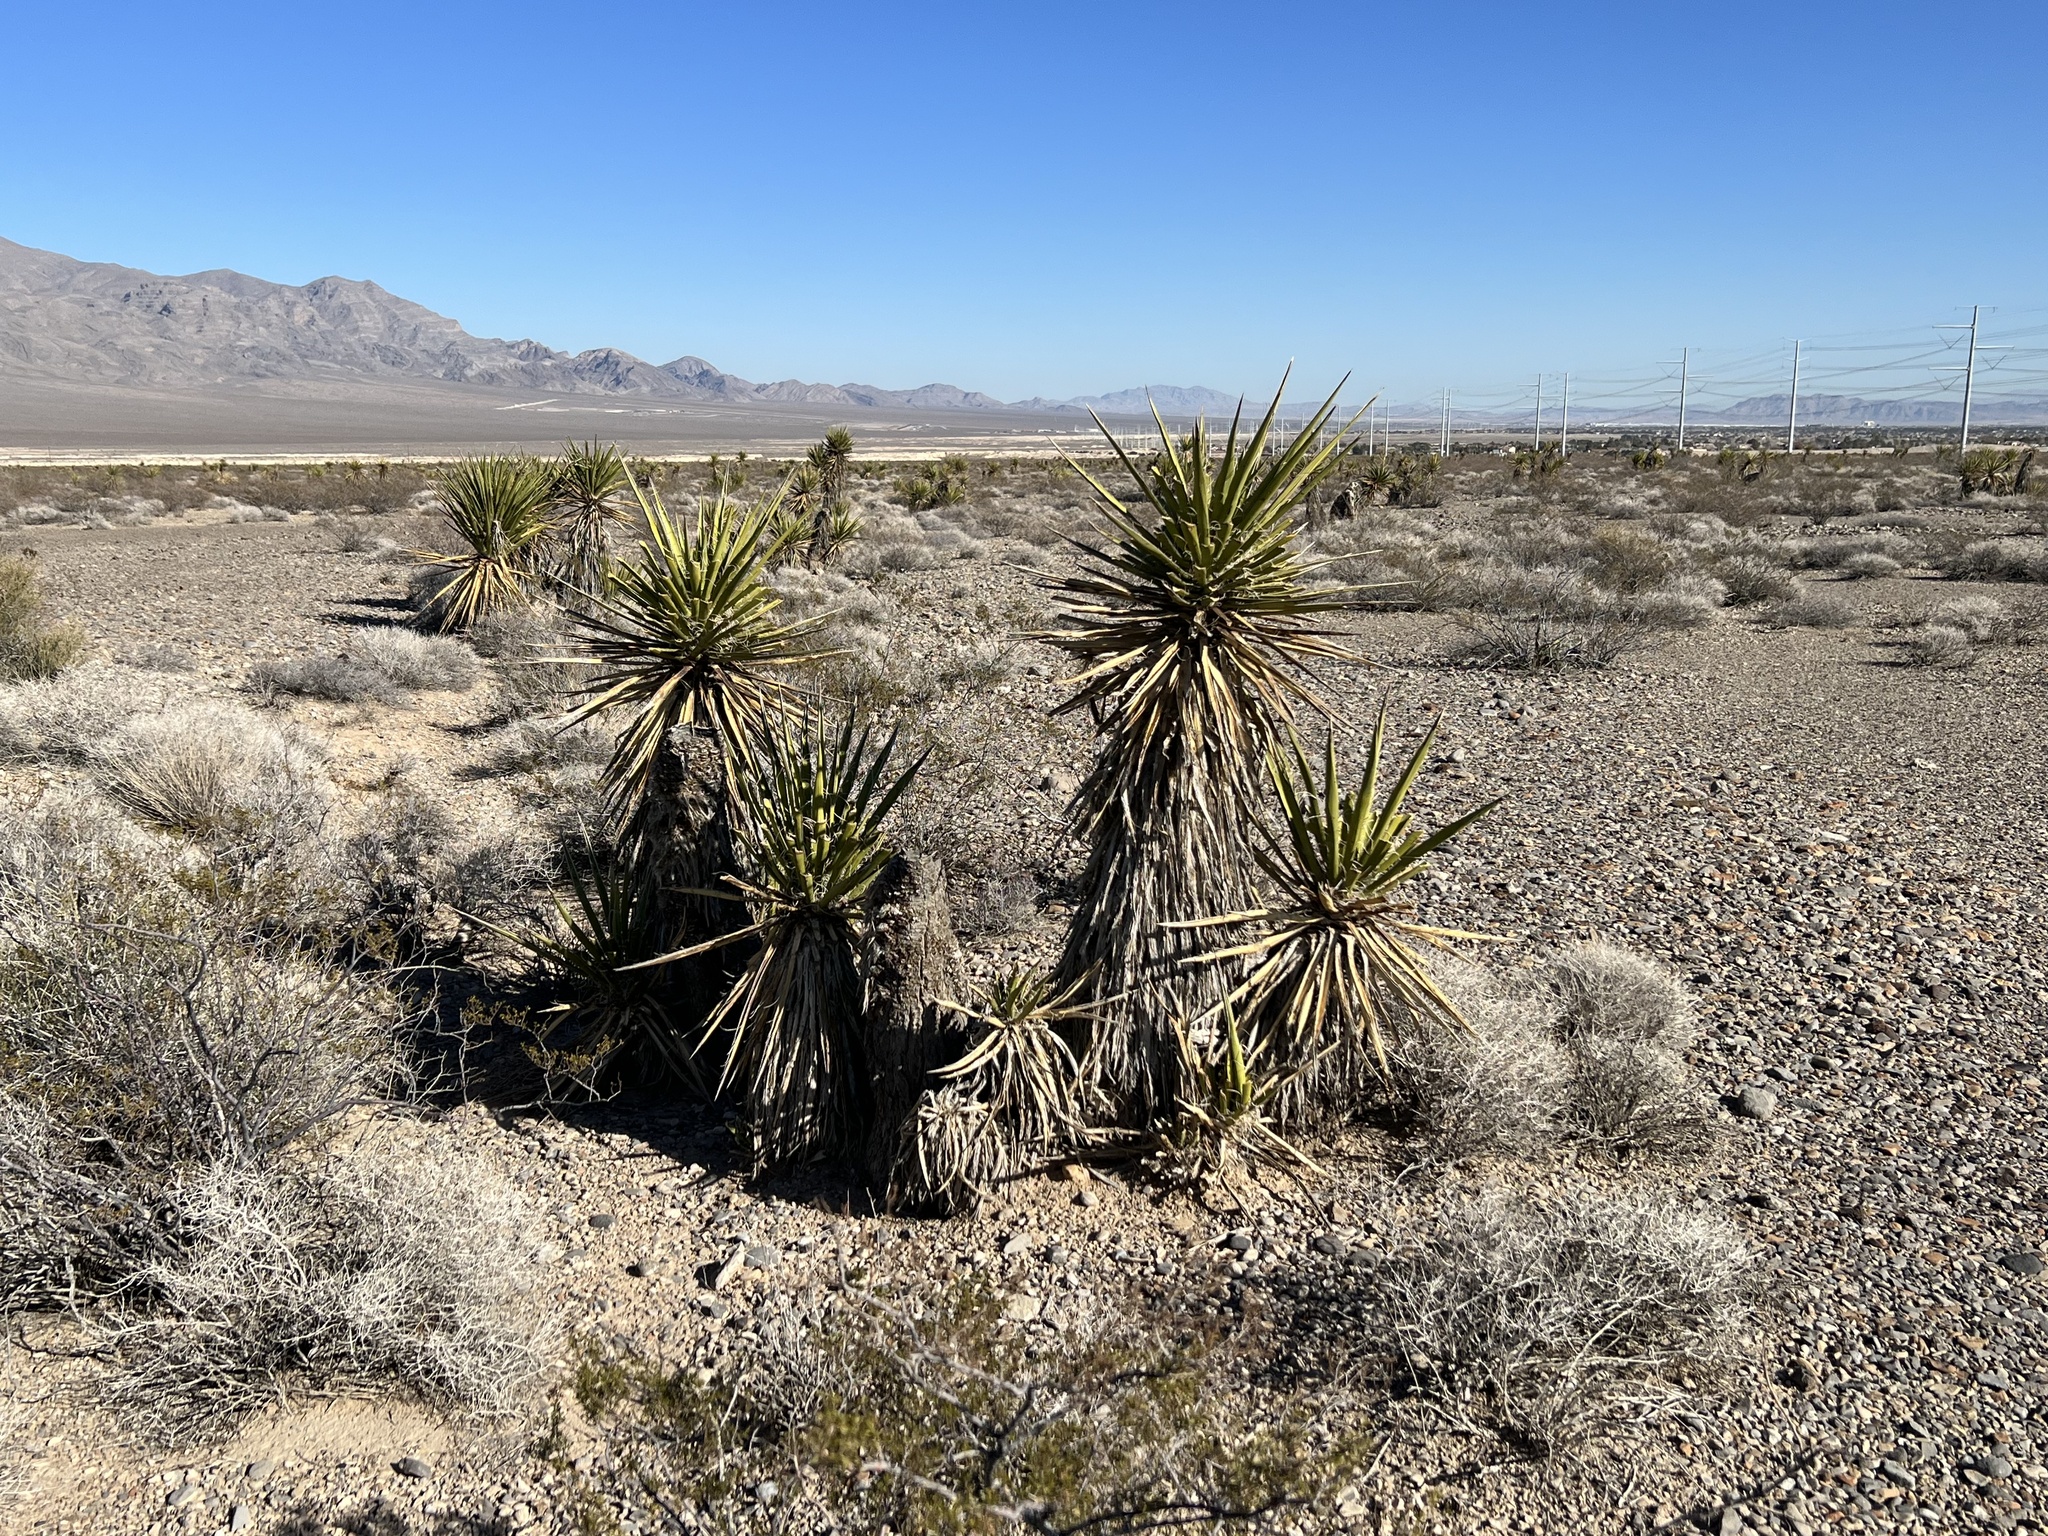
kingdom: Plantae
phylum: Tracheophyta
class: Liliopsida
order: Asparagales
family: Asparagaceae
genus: Yucca
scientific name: Yucca schidigera
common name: Mojave yucca
